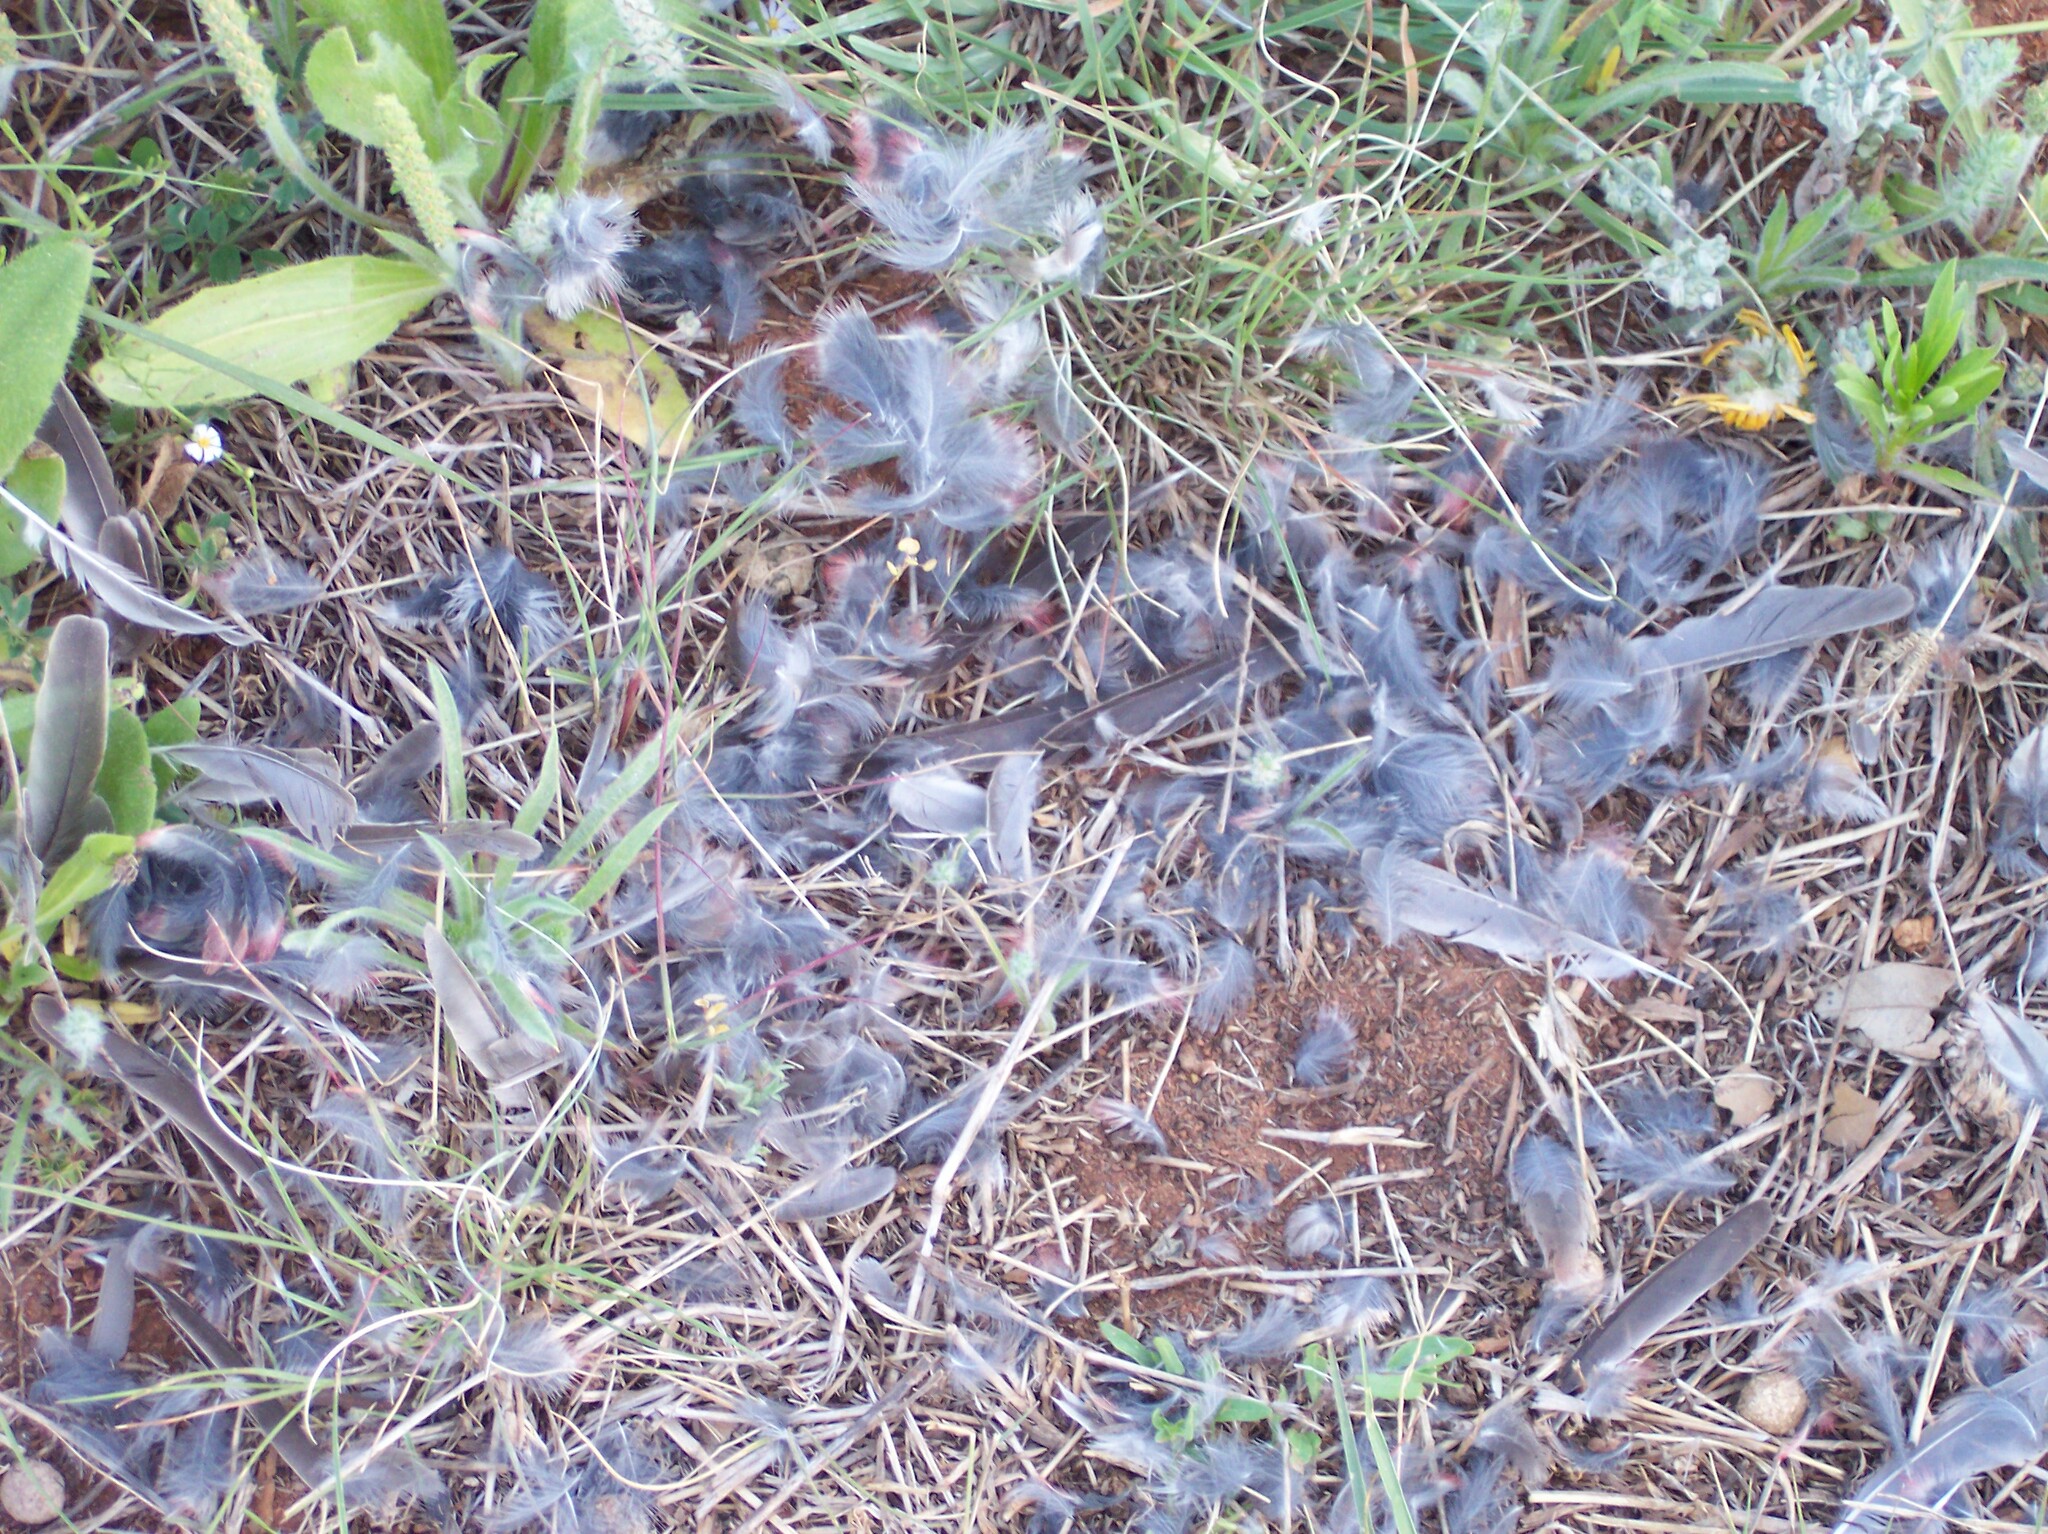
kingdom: Animalia
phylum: Chordata
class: Aves
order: Passeriformes
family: Fringillidae
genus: Haemorhous
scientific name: Haemorhous mexicanus
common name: House finch
